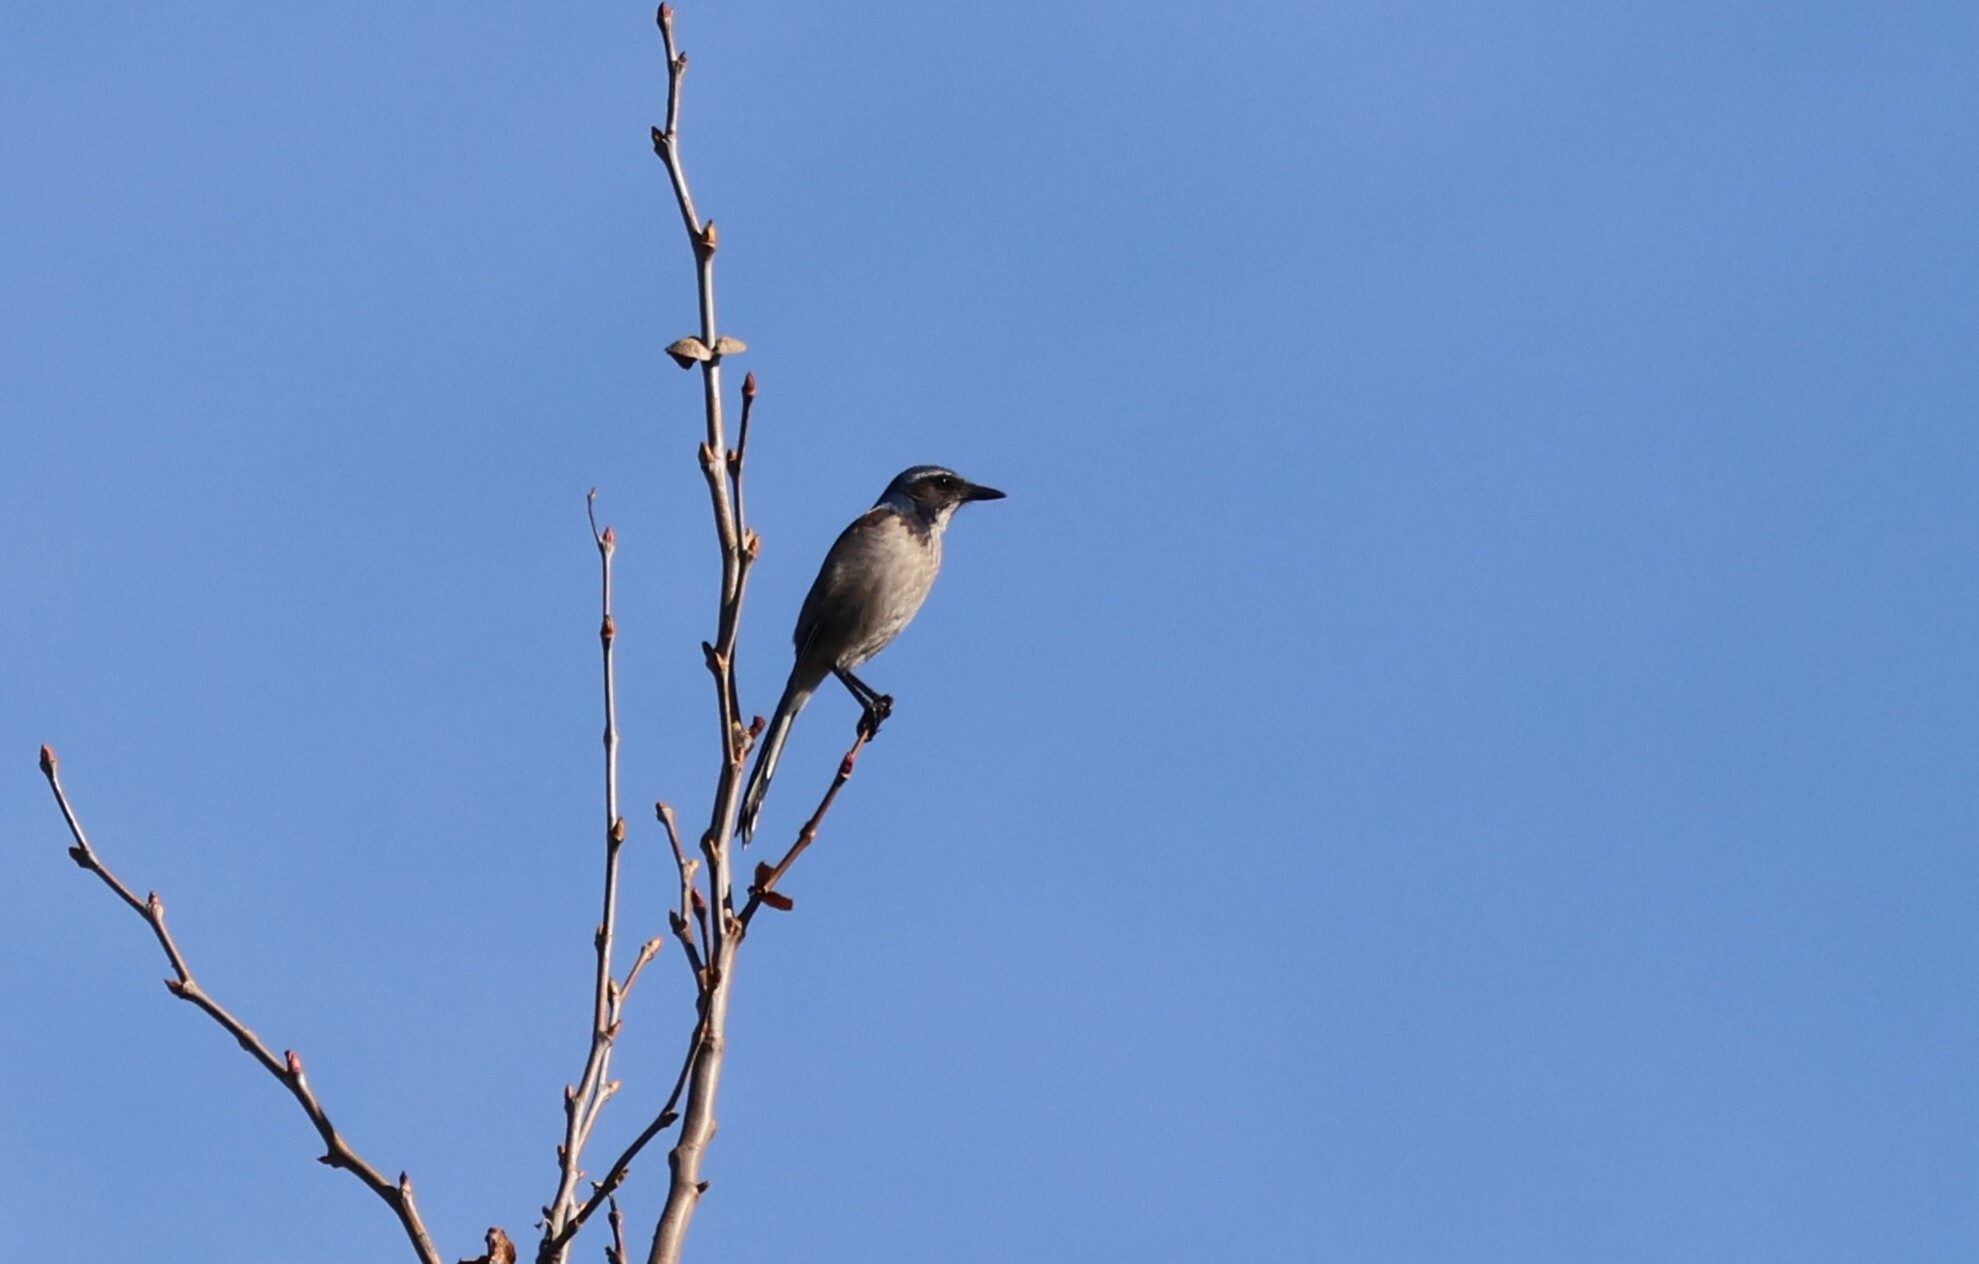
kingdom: Animalia
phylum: Chordata
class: Aves
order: Passeriformes
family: Corvidae
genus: Aphelocoma
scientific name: Aphelocoma californica
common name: California scrub-jay
